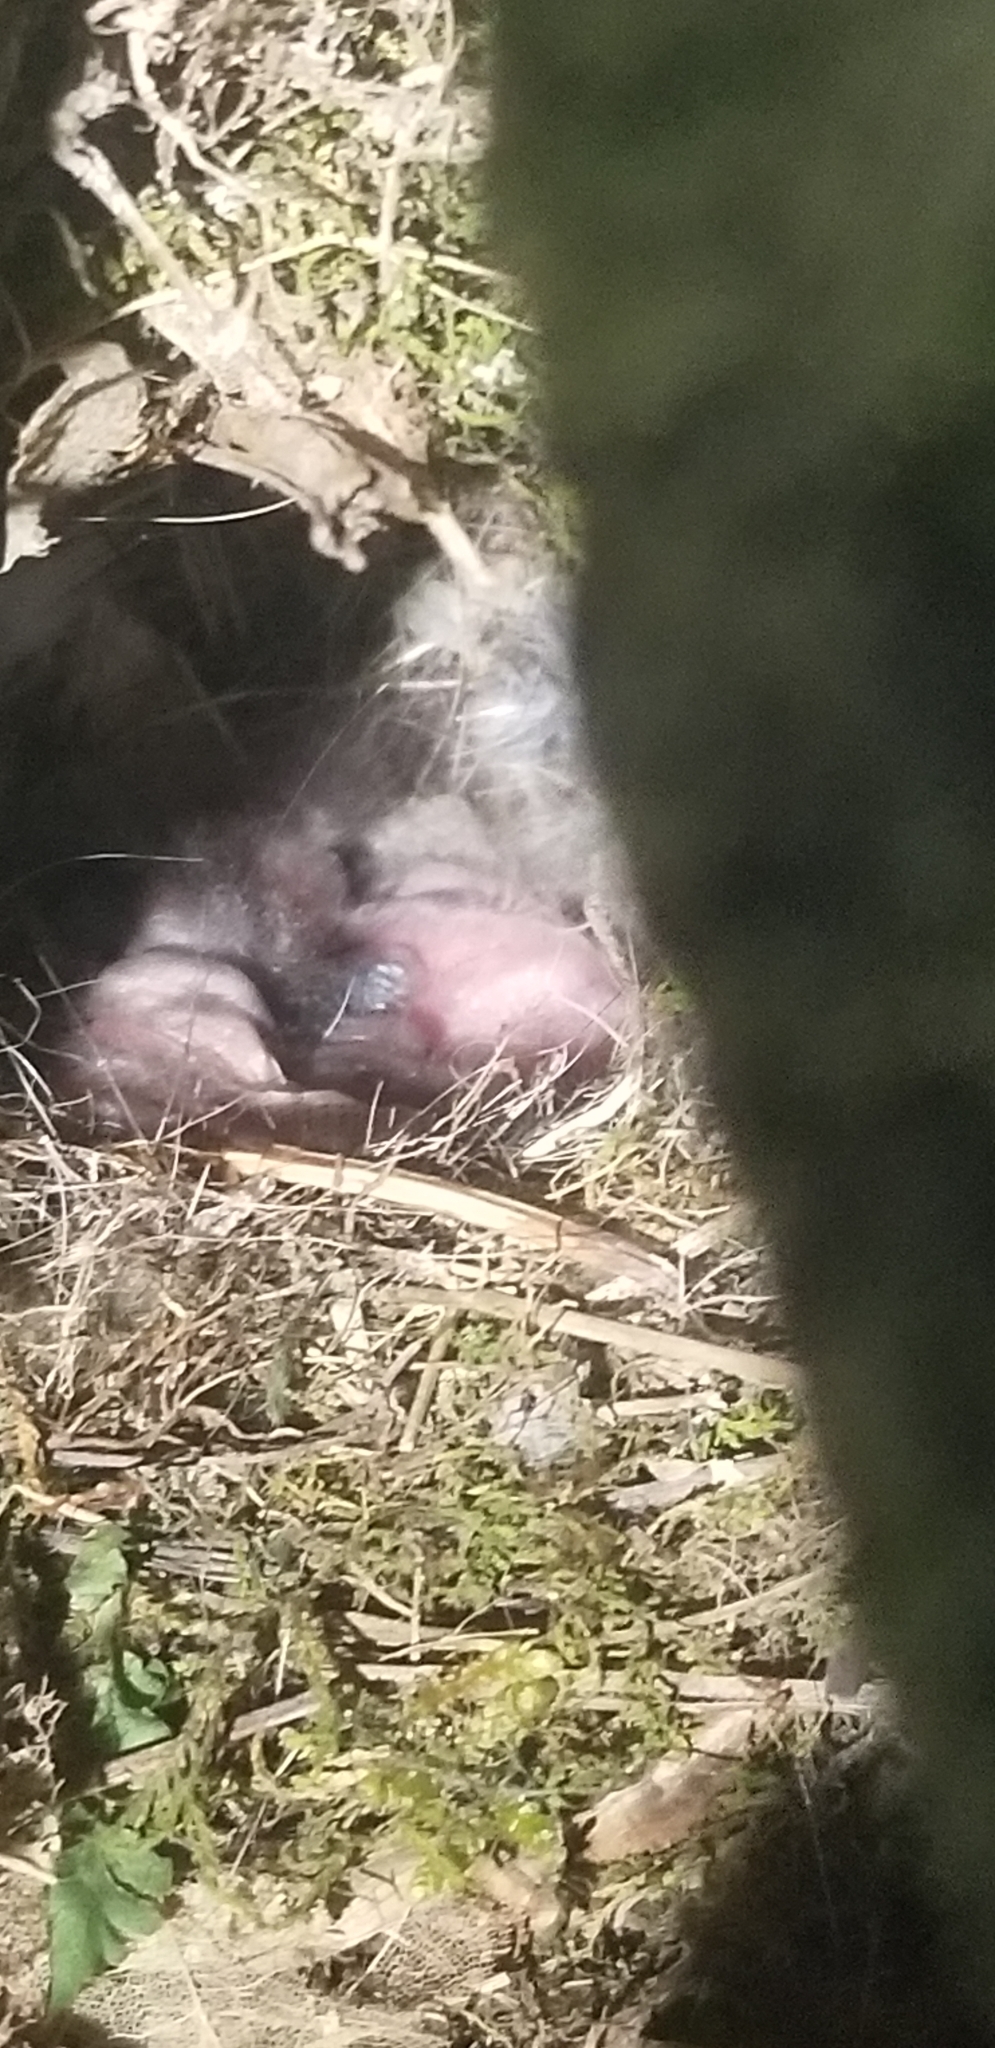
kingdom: Animalia
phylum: Chordata
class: Aves
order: Passeriformes
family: Troglodytidae
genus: Thryothorus
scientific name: Thryothorus ludovicianus
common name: Carolina wren
